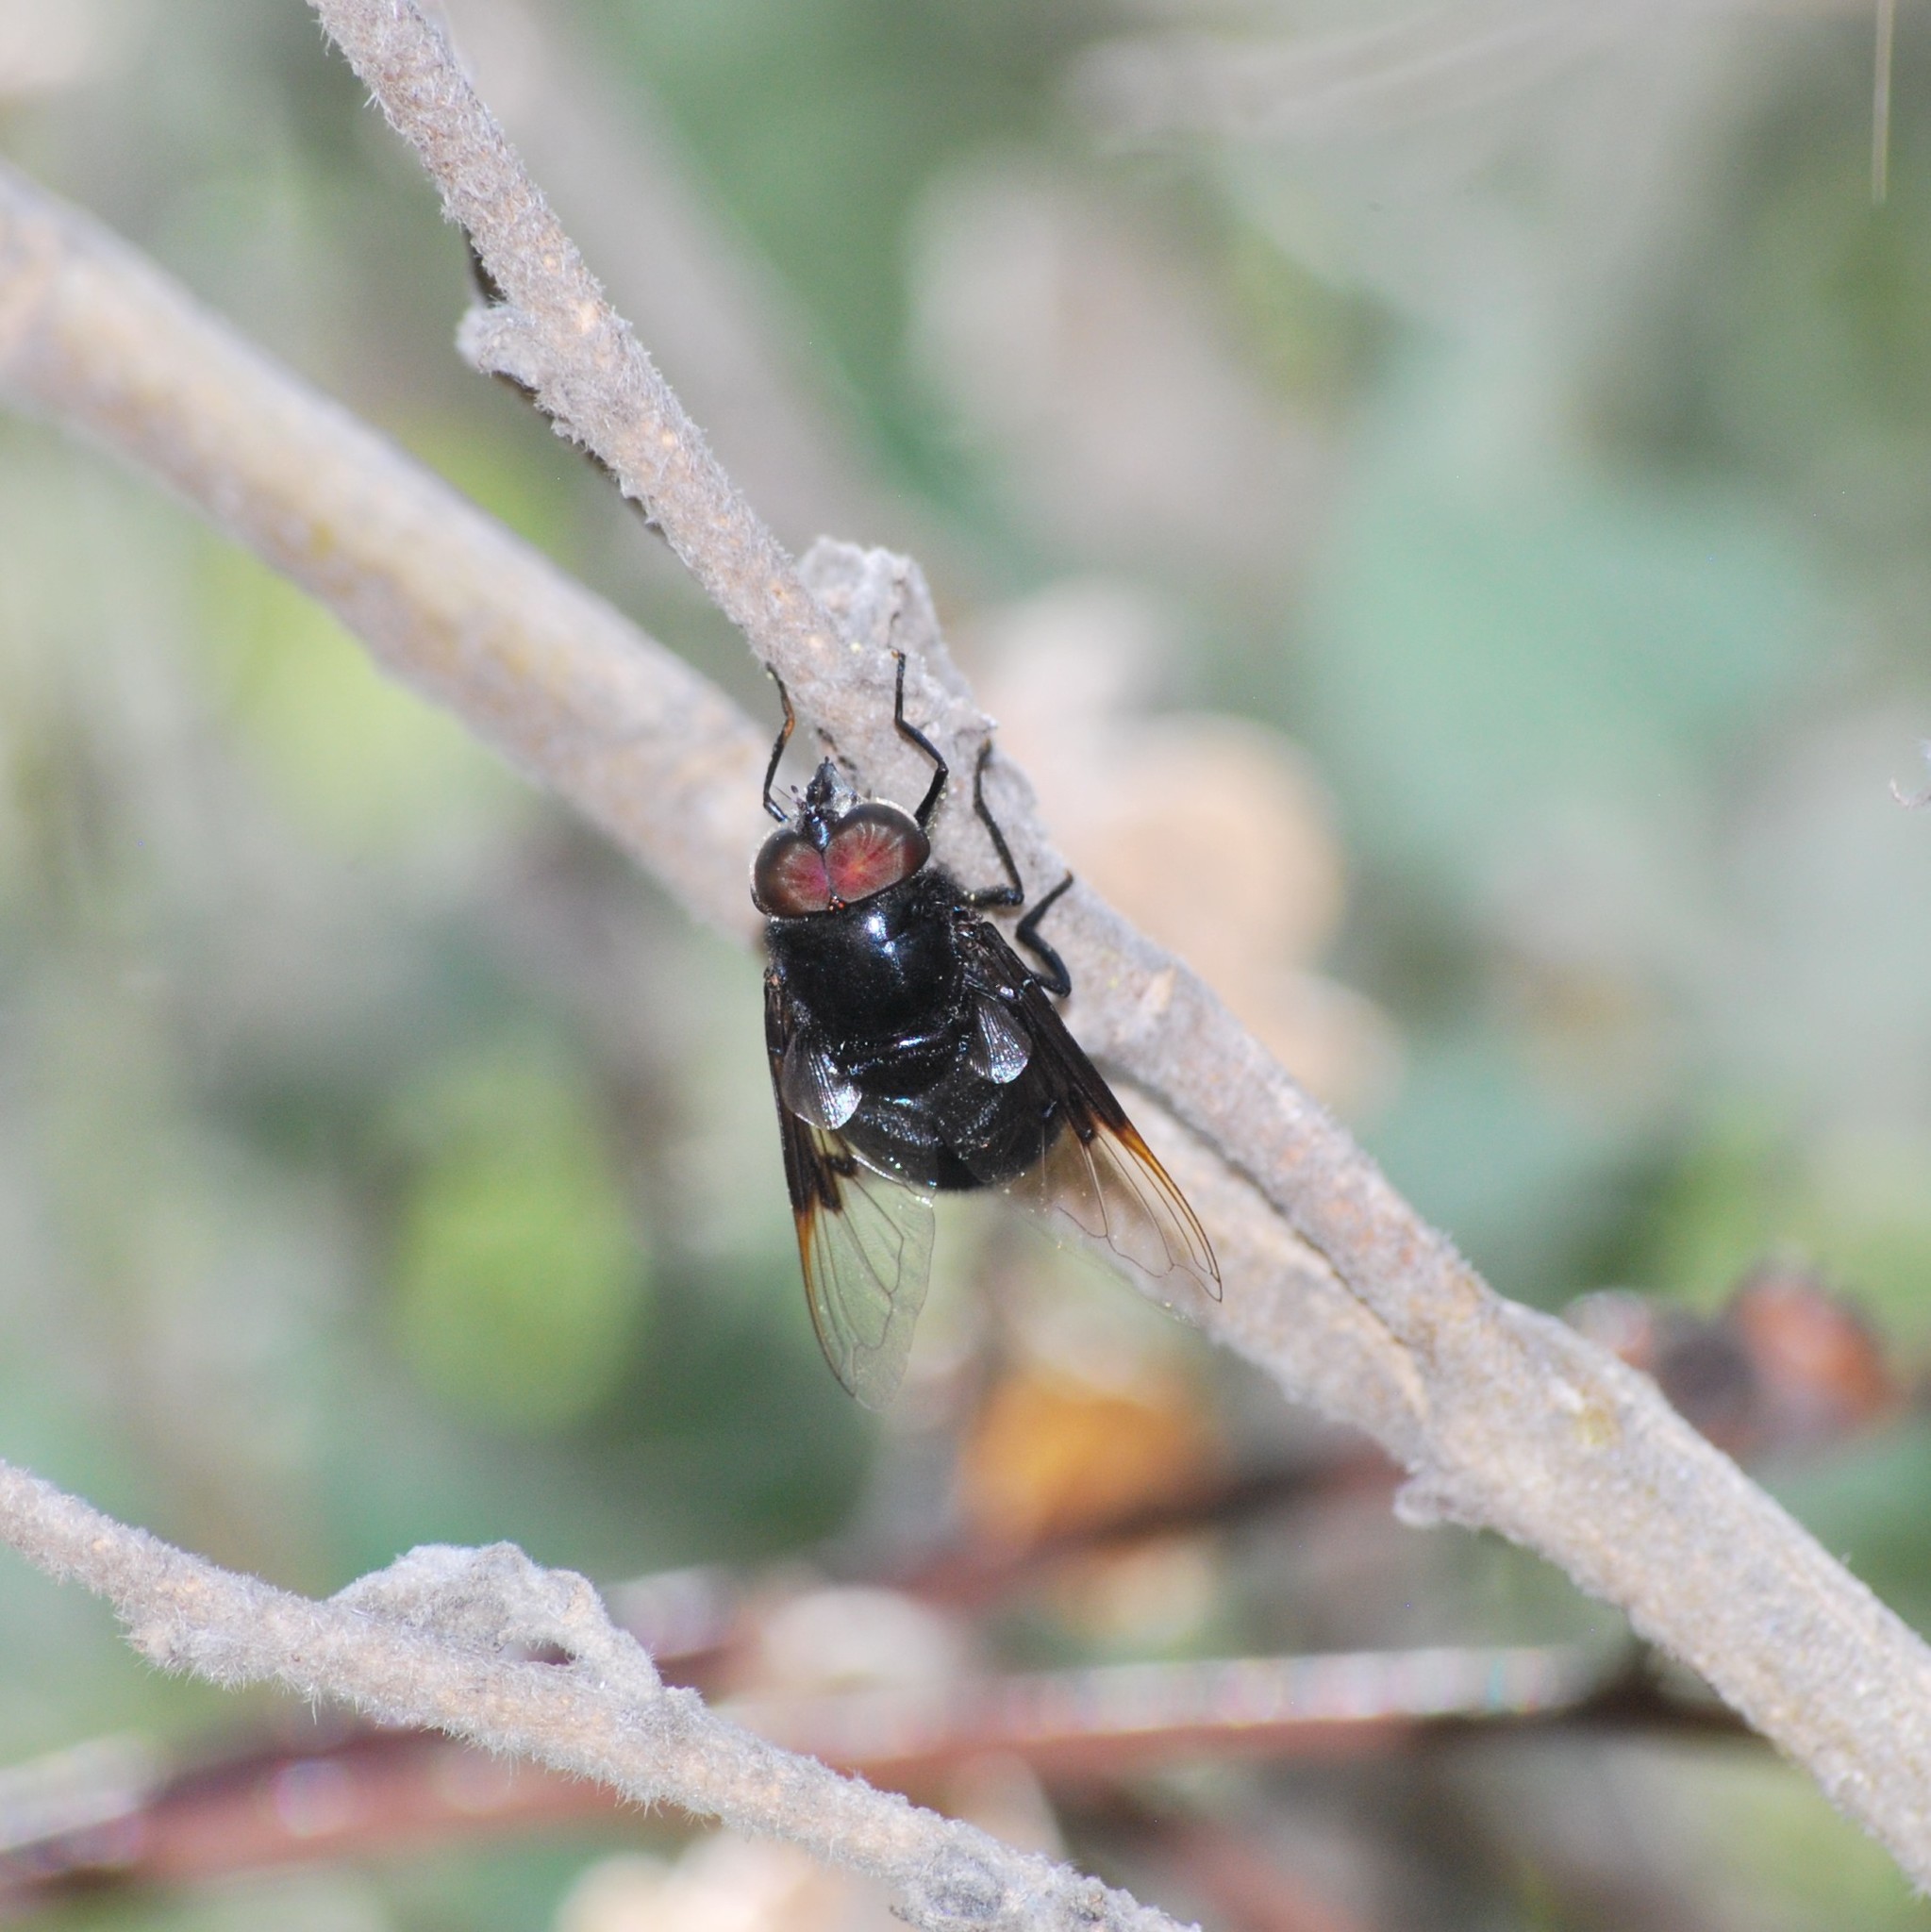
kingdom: Animalia
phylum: Arthropoda
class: Insecta
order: Diptera
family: Syrphidae
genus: Copestylum
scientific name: Copestylum mexicanum
